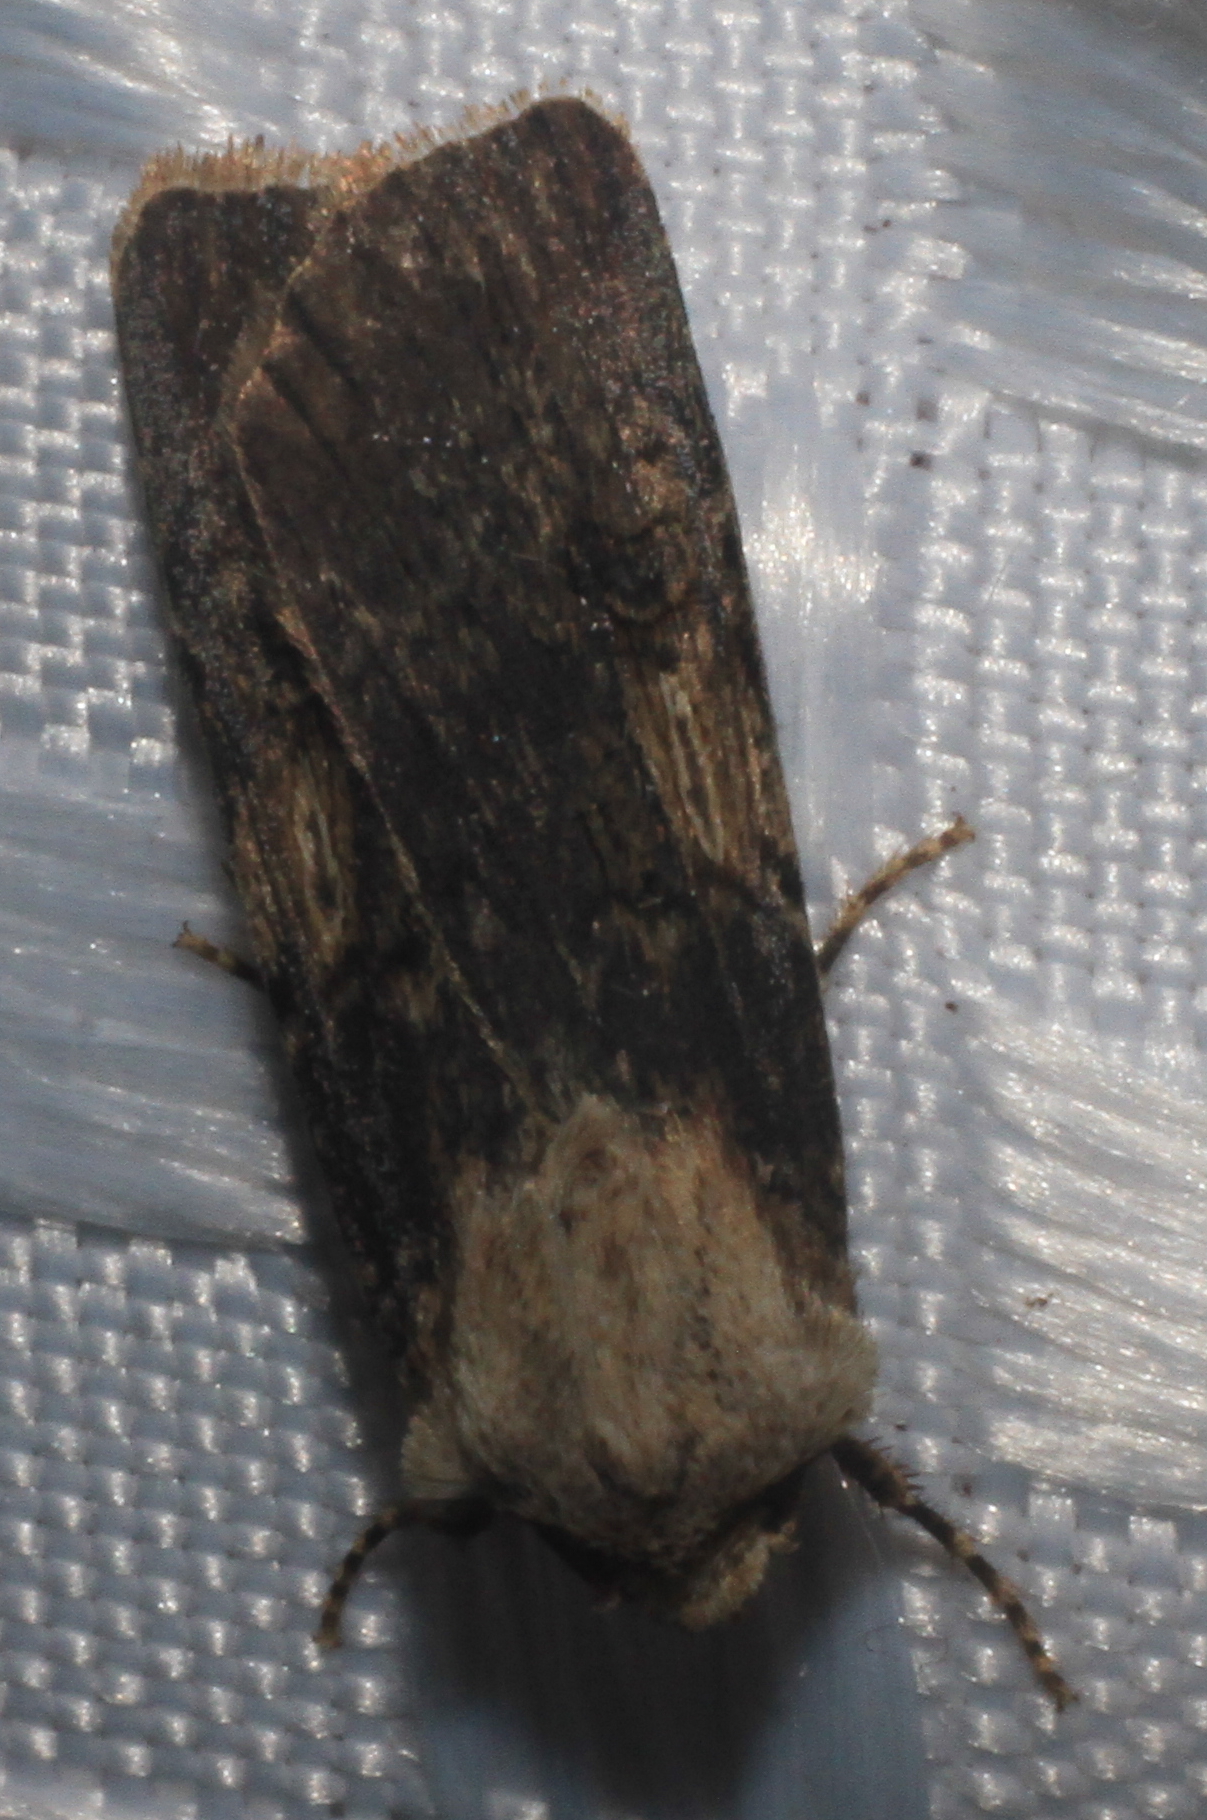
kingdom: Animalia
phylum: Arthropoda
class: Insecta
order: Lepidoptera
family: Noctuidae
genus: Agrotis
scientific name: Agrotis puta
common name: Shuttle-shaped dart
